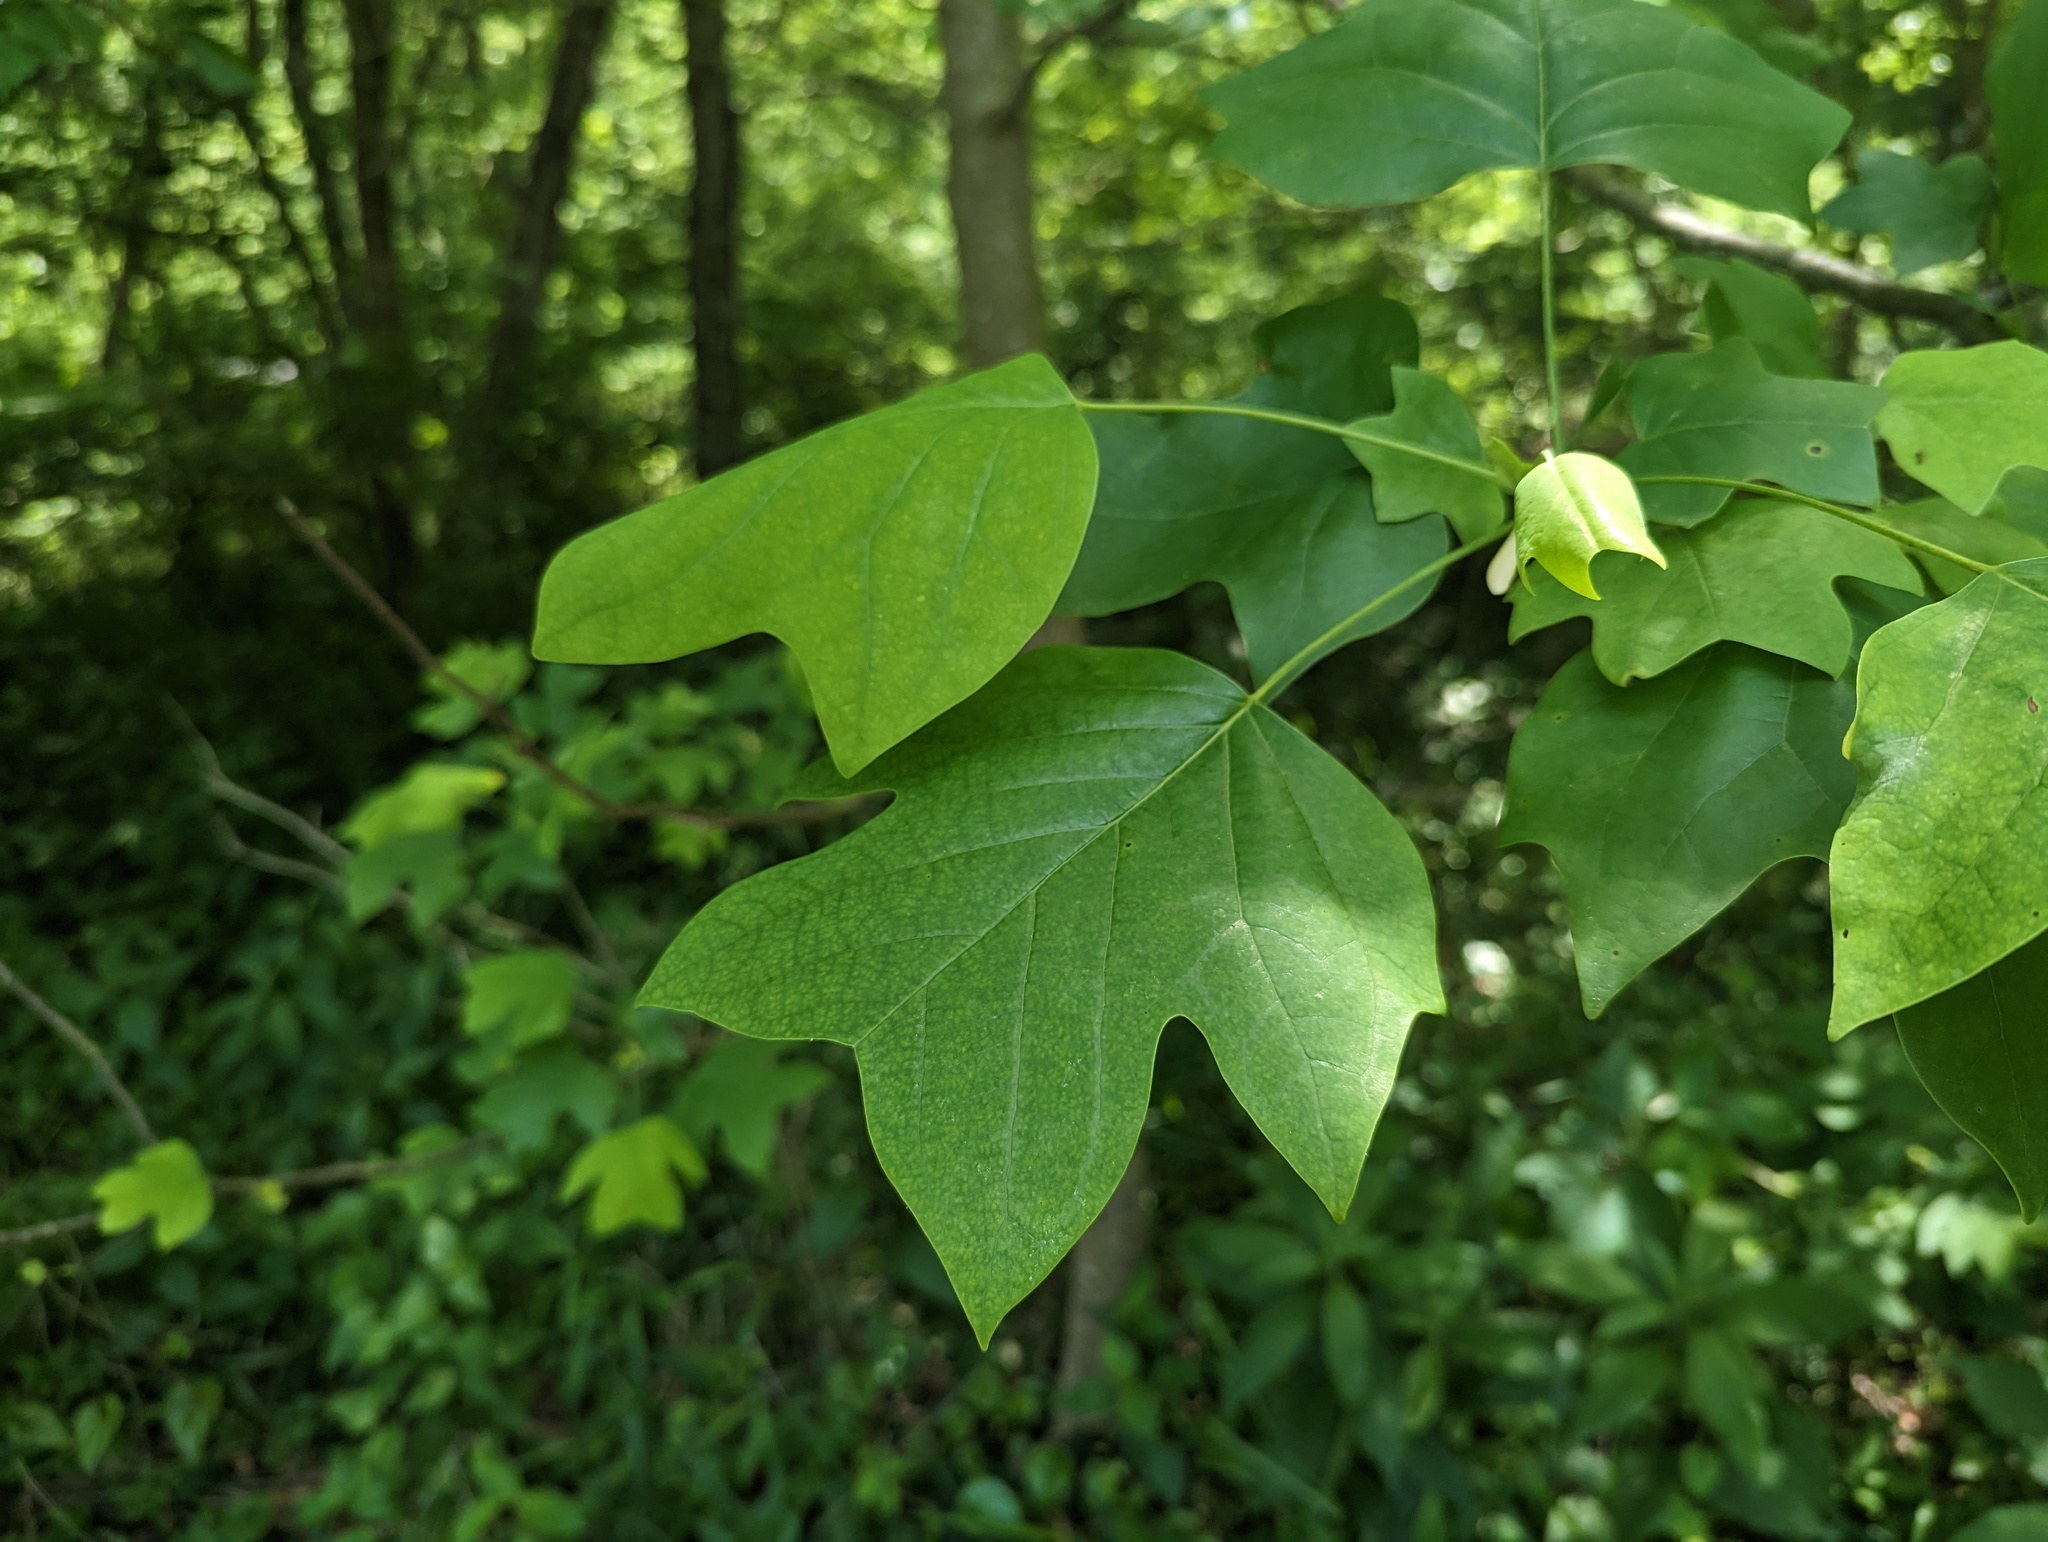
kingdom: Plantae
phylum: Tracheophyta
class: Magnoliopsida
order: Magnoliales
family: Magnoliaceae
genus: Liriodendron
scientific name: Liriodendron tulipifera
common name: Tulip tree
